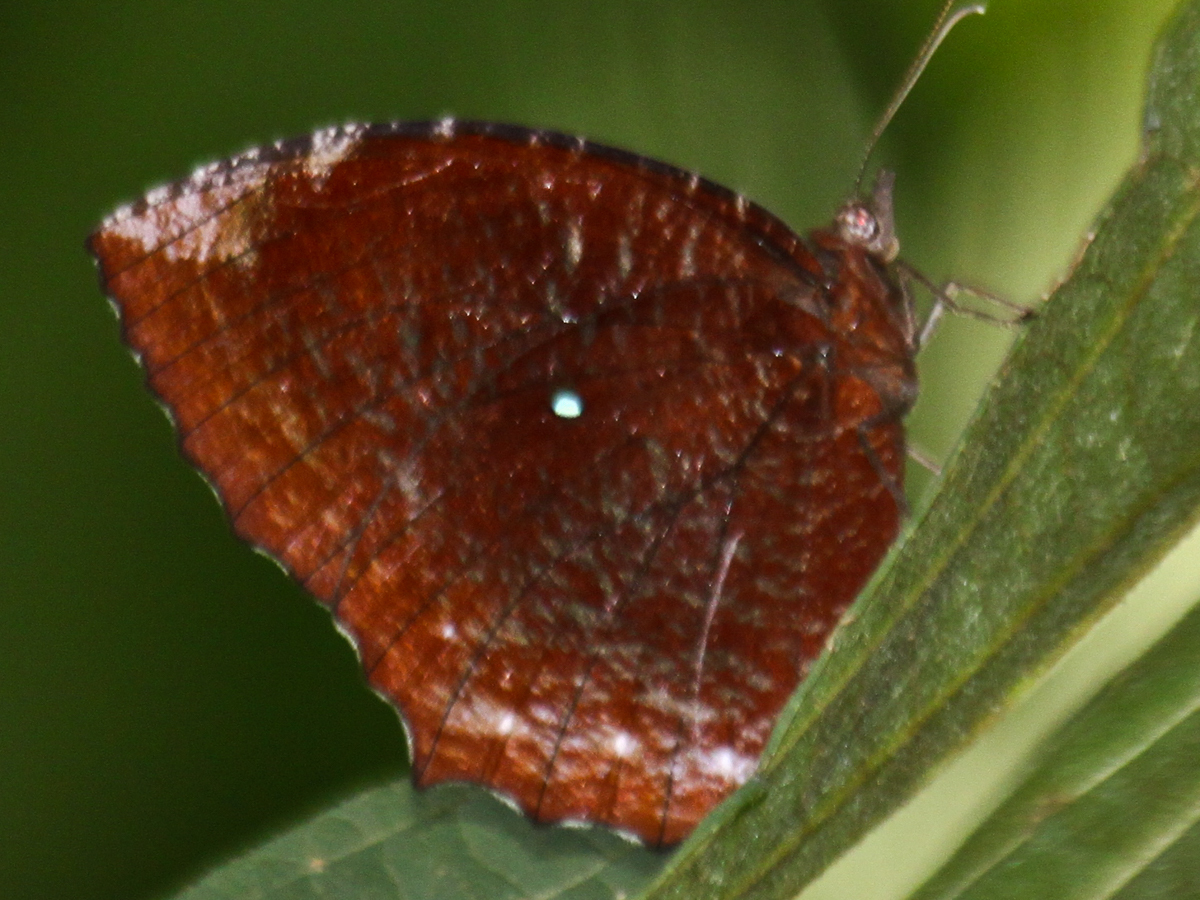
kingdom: Animalia
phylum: Arthropoda
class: Insecta
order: Lepidoptera
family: Nymphalidae
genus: Elymnias
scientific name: Elymnias hypermnestra
